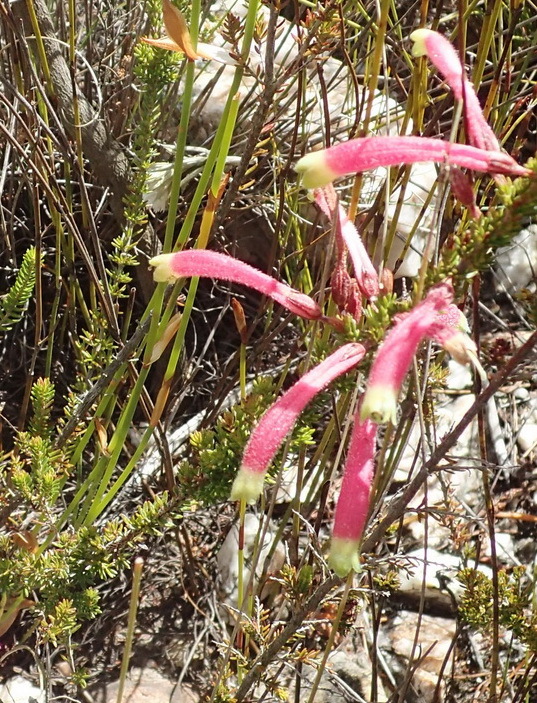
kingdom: Plantae
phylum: Tracheophyta
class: Magnoliopsida
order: Ericales
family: Ericaceae
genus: Erica
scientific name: Erica densifolia
